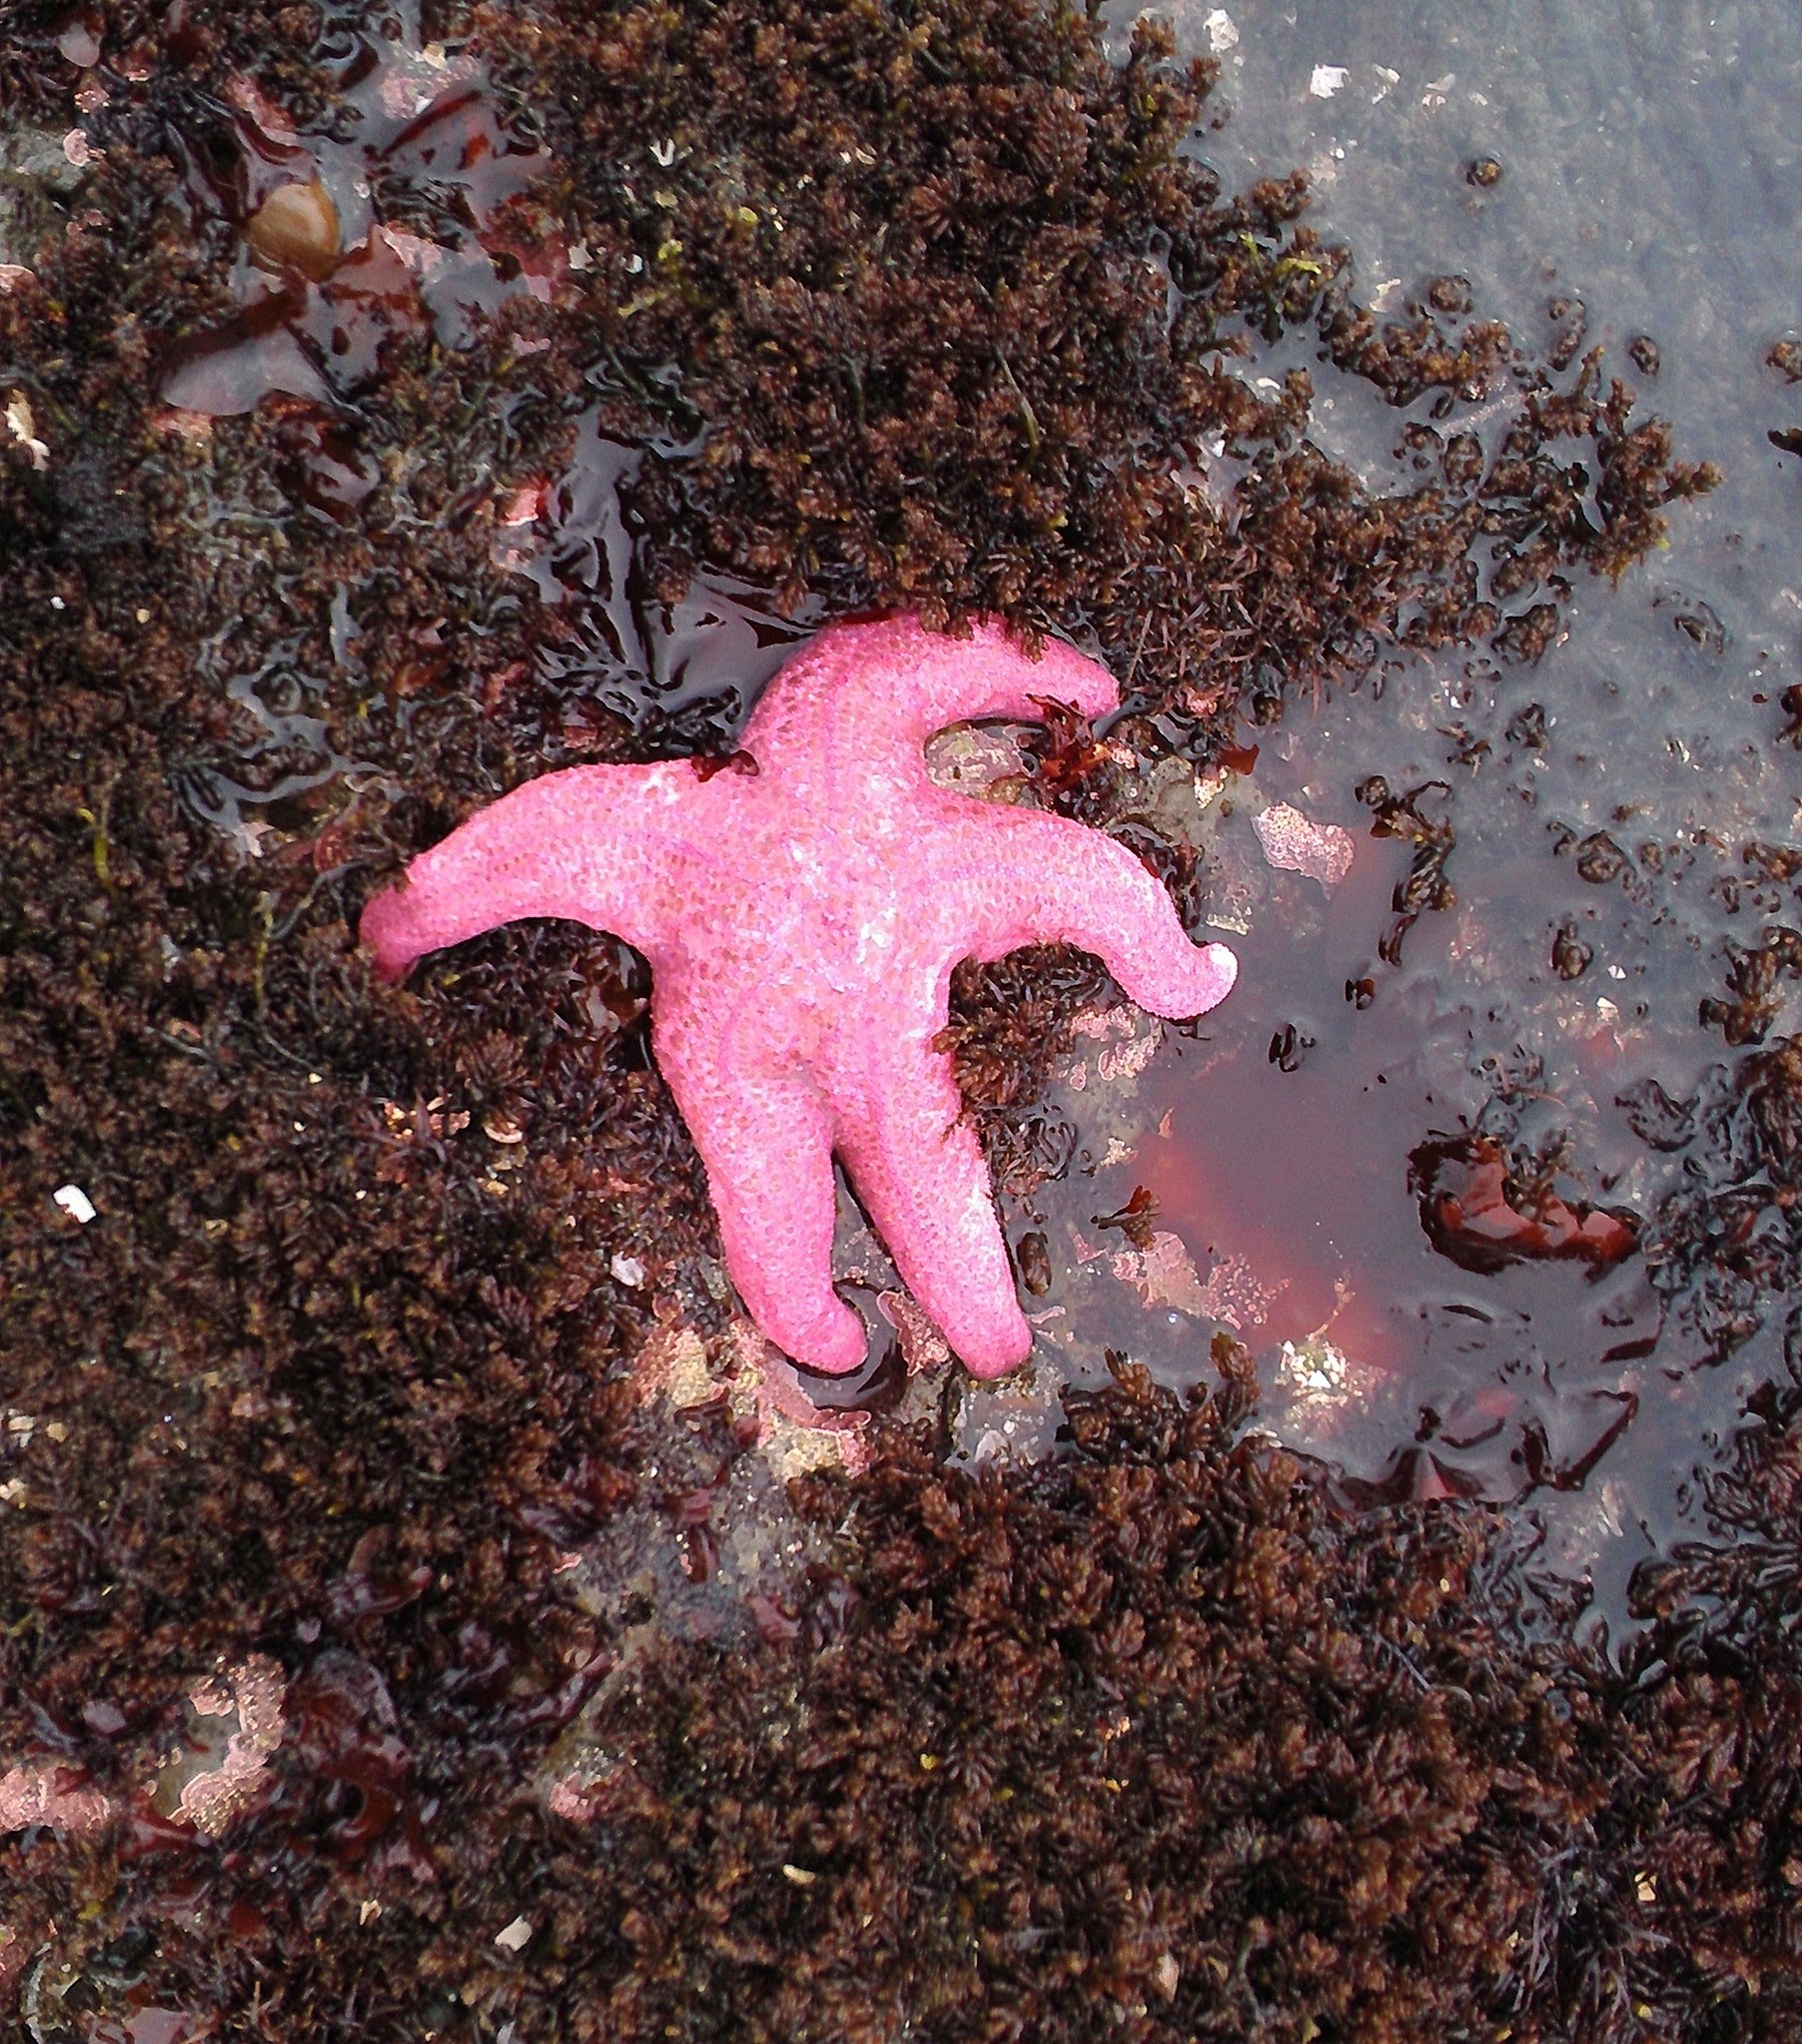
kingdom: Animalia
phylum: Echinodermata
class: Asteroidea
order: Forcipulatida
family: Asteriidae
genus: Pisaster
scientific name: Pisaster brevispinus
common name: Pink stars
